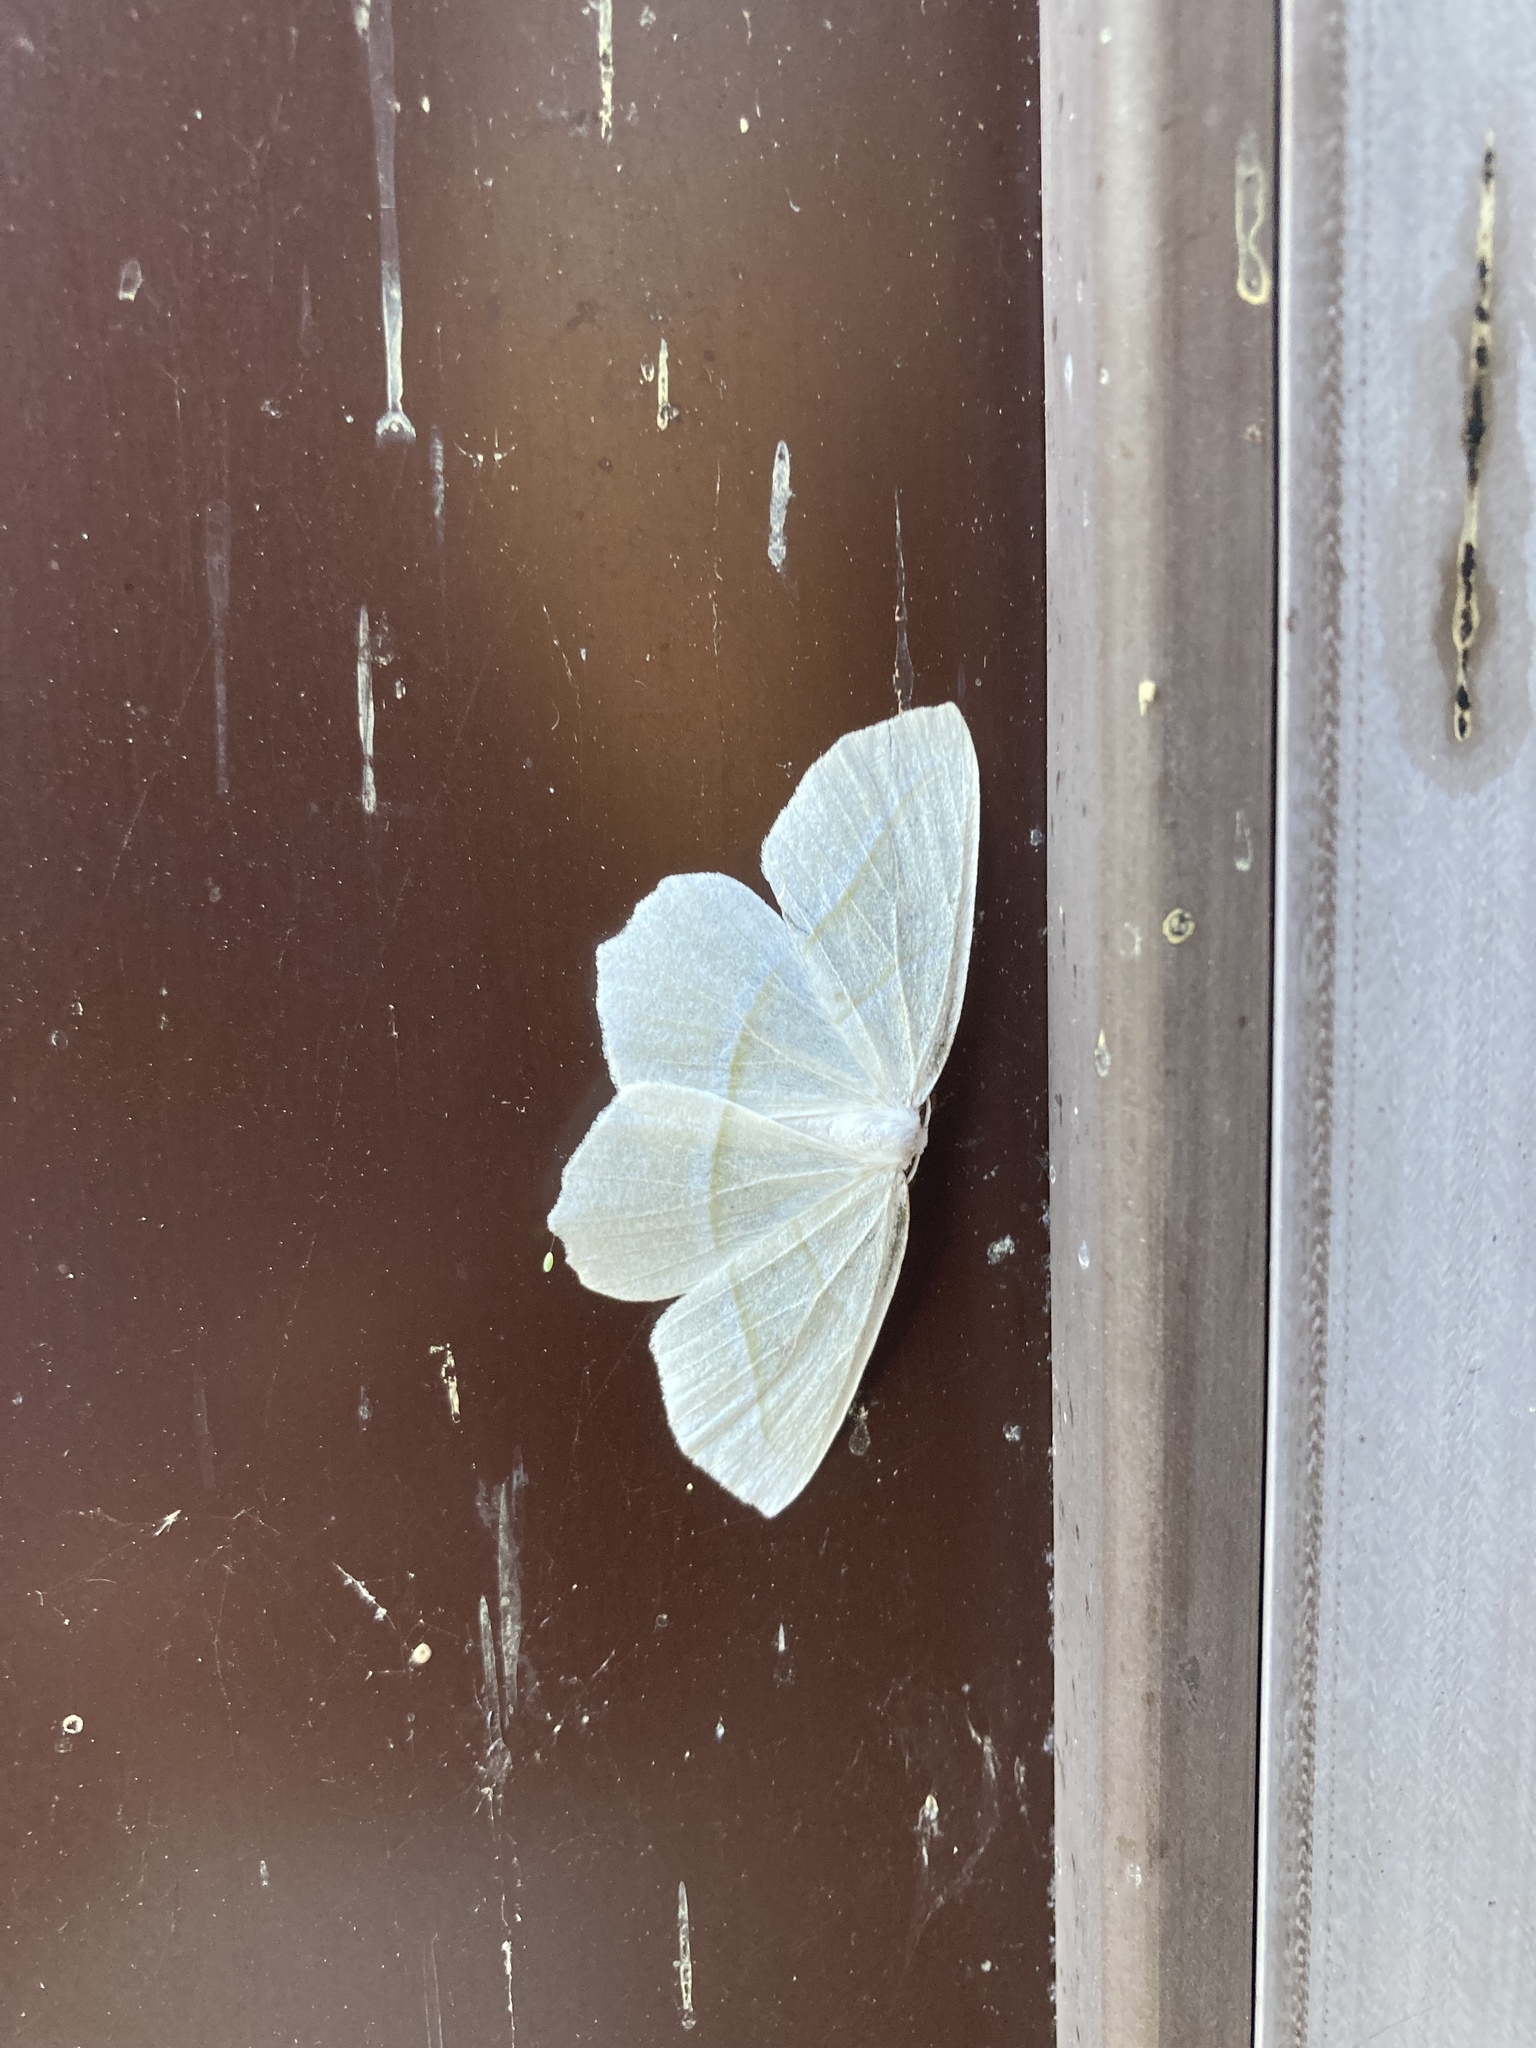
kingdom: Animalia
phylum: Arthropoda
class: Insecta
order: Lepidoptera
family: Geometridae
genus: Campaea
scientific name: Campaea perlata
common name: Fringed looper
